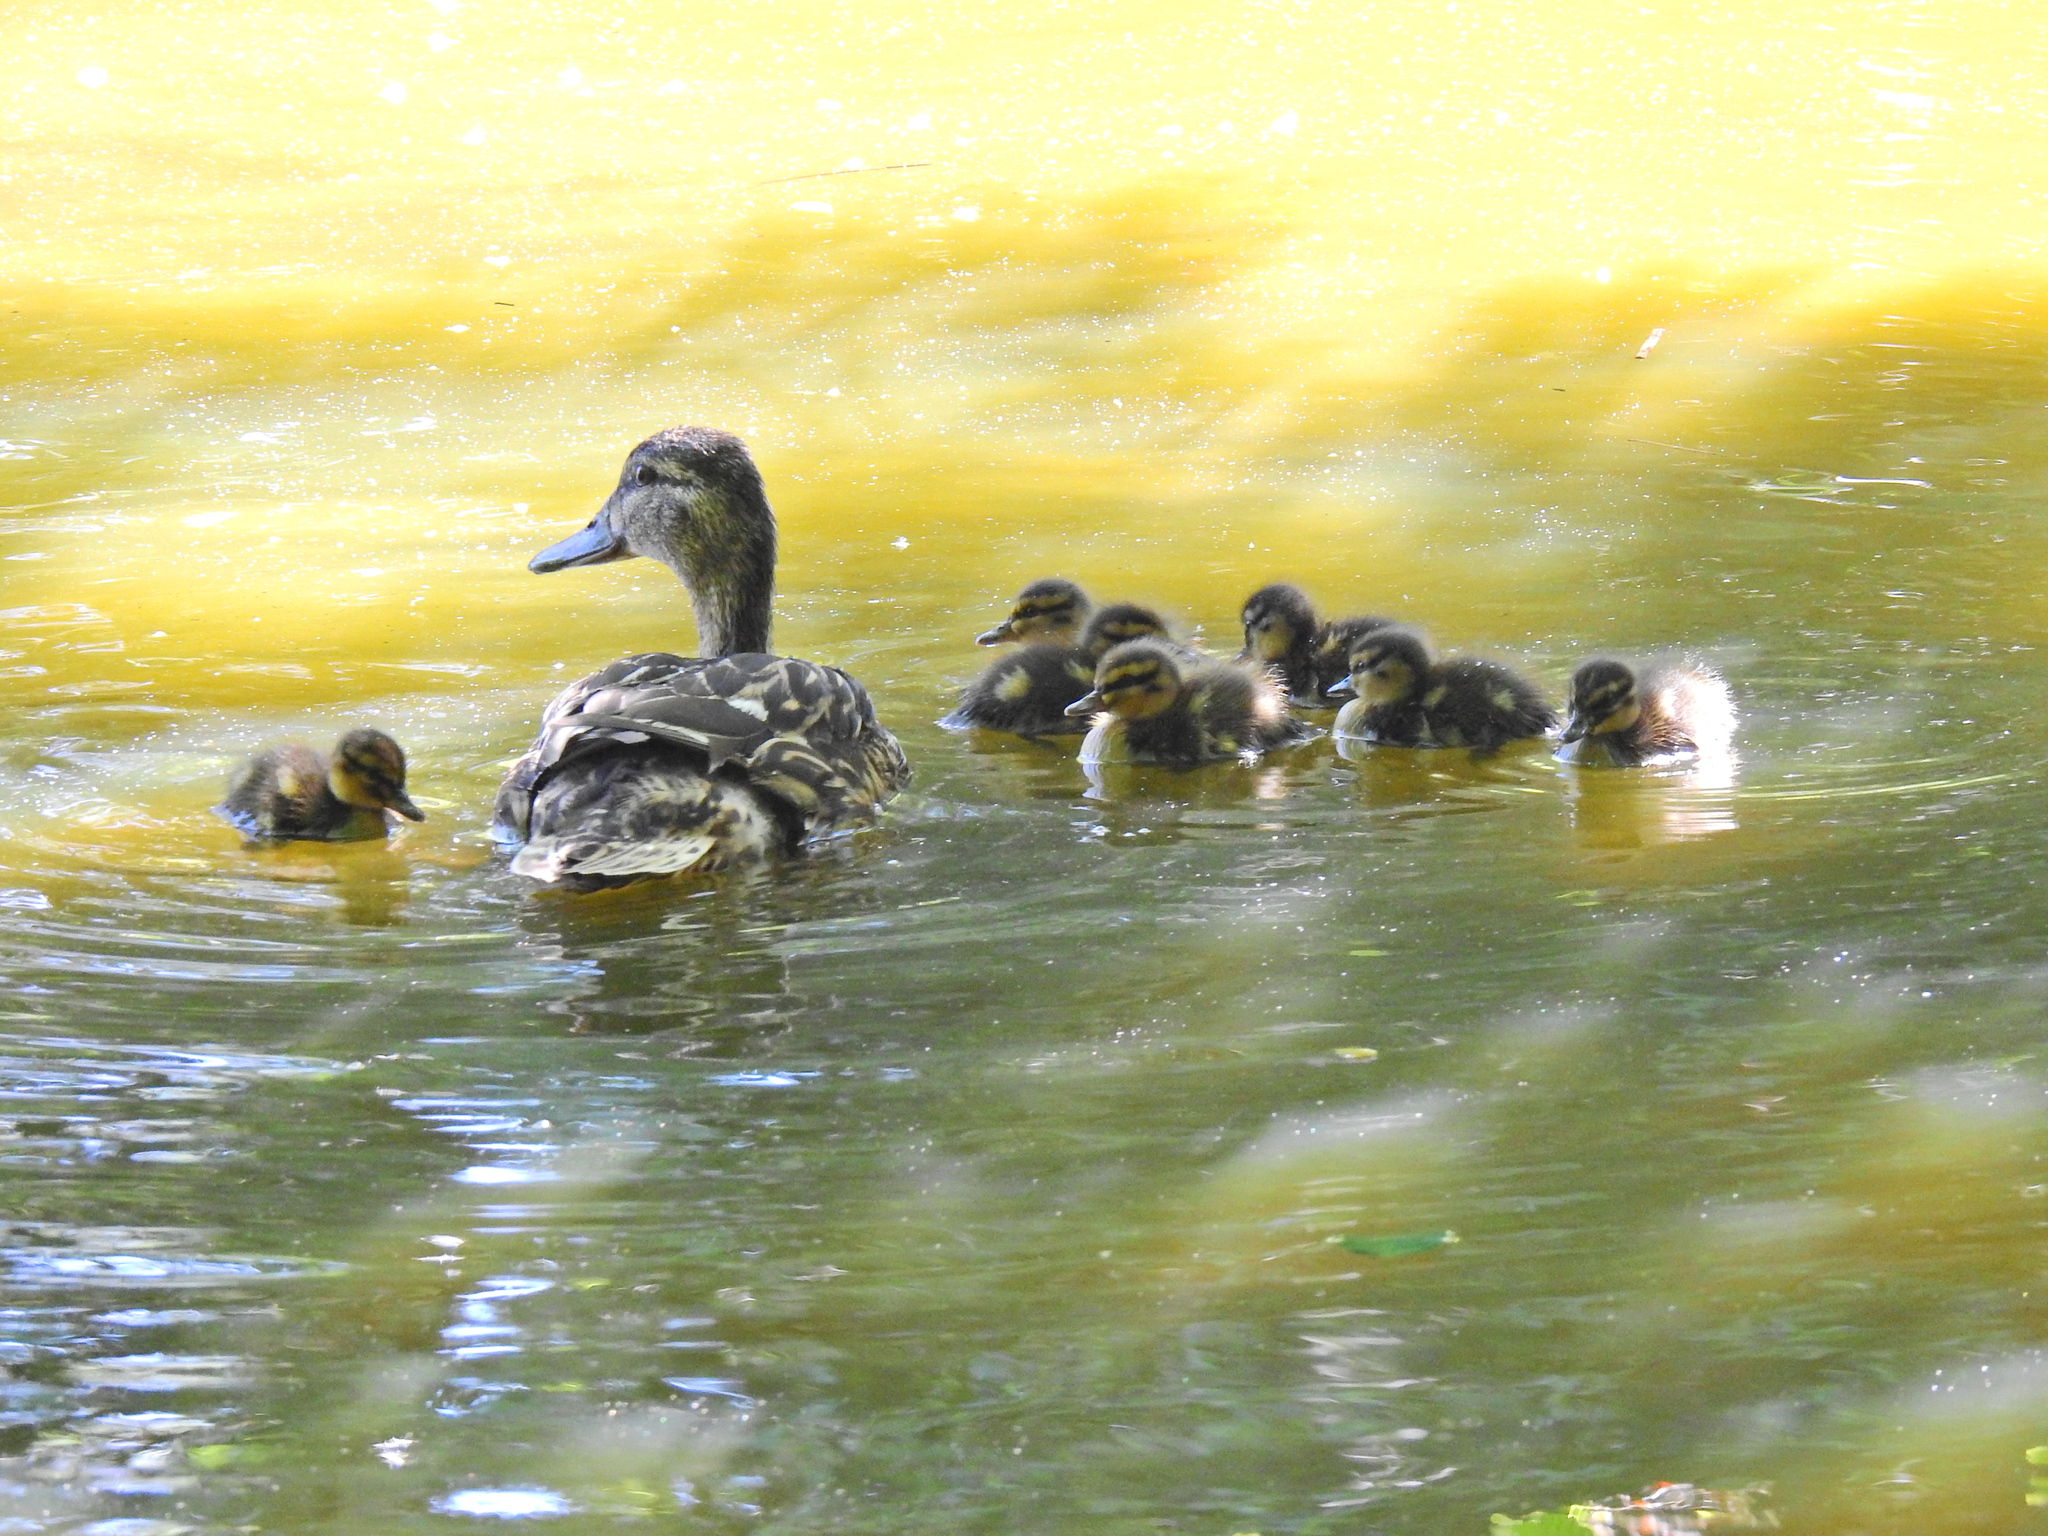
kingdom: Animalia
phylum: Chordata
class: Aves
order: Anseriformes
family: Anatidae
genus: Anas
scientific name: Anas platyrhynchos
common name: Mallard
